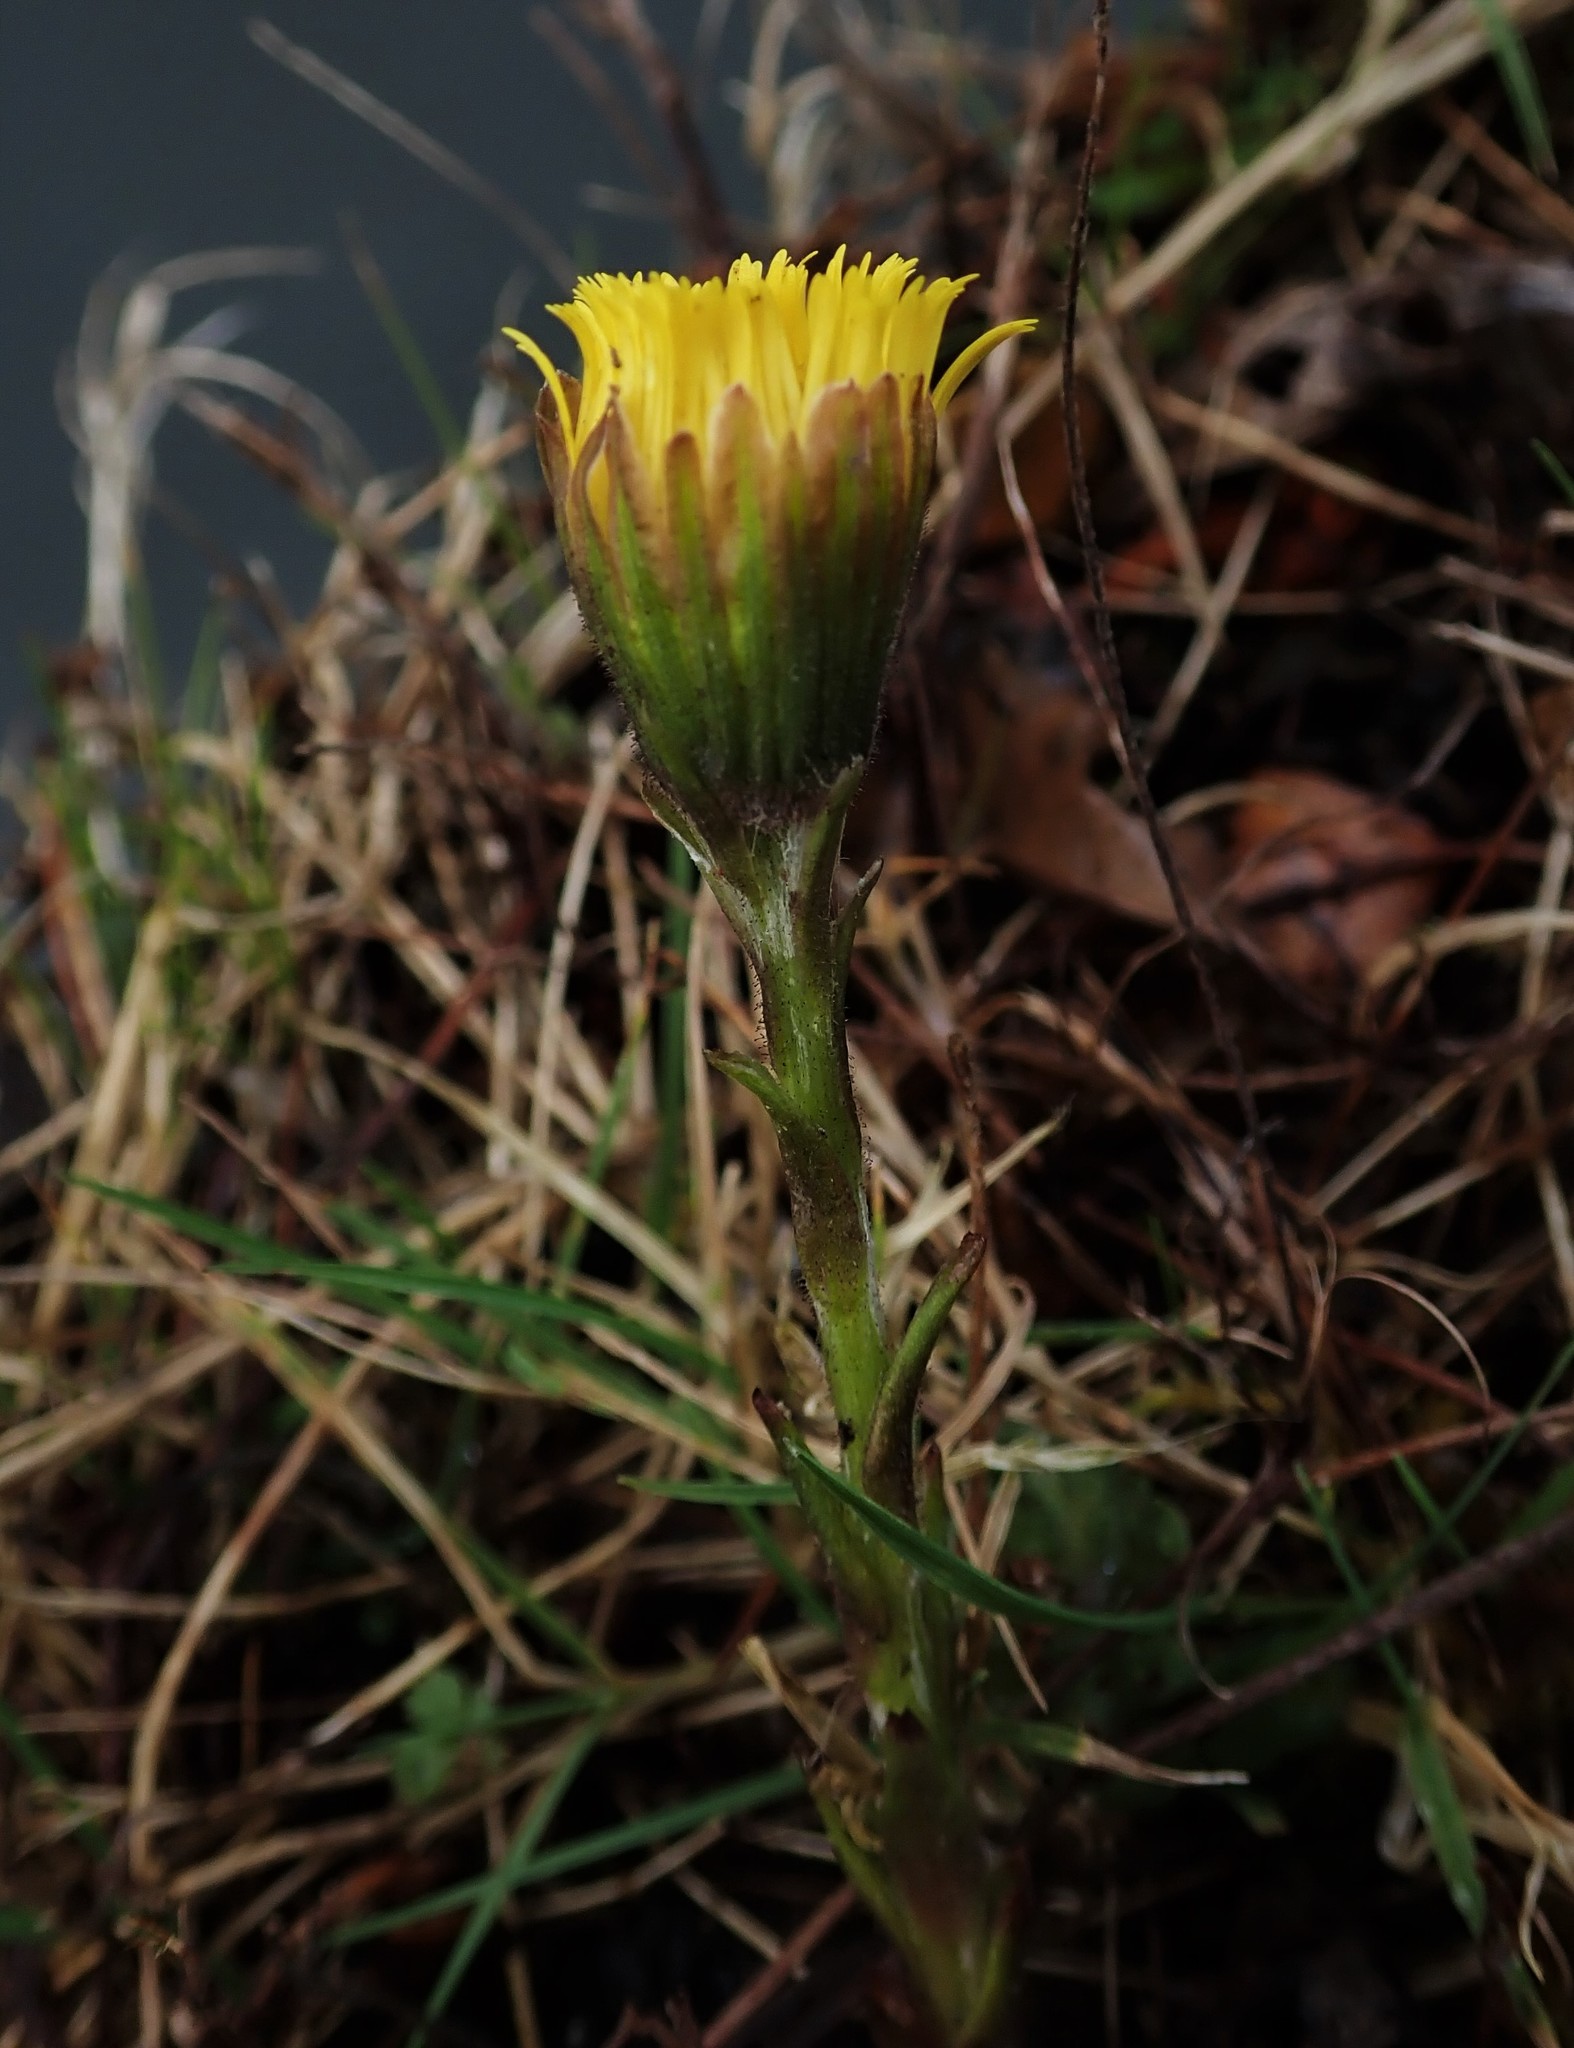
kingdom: Plantae
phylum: Tracheophyta
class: Magnoliopsida
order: Asterales
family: Asteraceae
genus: Tussilago
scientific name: Tussilago farfara
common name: Coltsfoot
